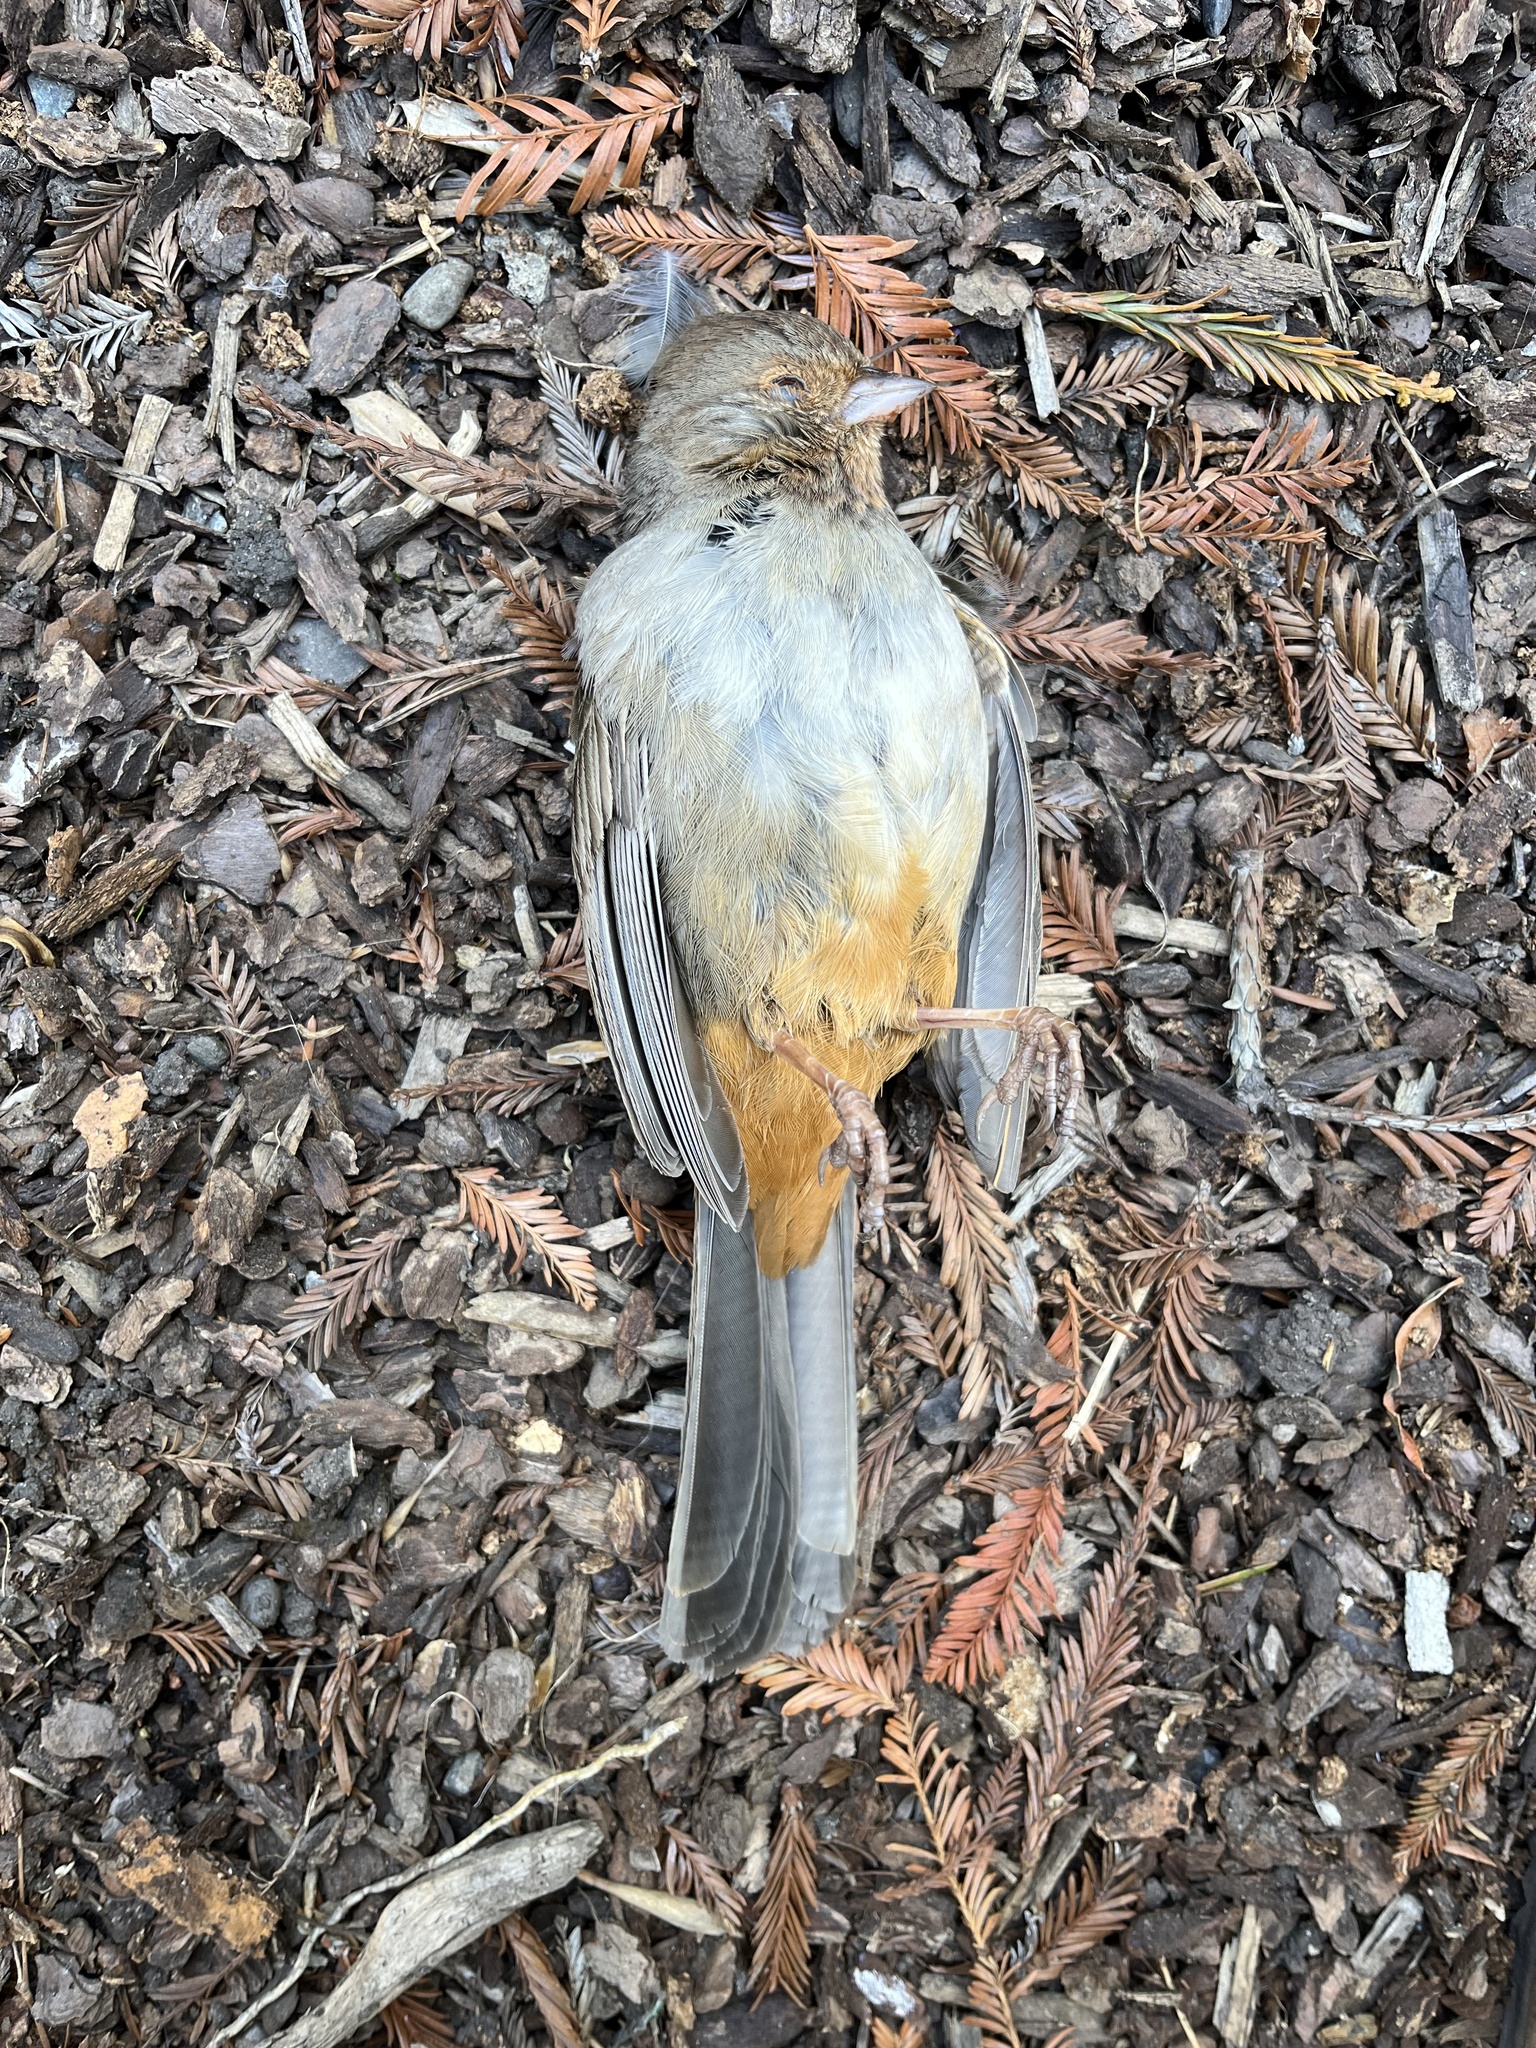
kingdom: Animalia
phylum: Chordata
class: Aves
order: Passeriformes
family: Passerellidae
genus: Melozone
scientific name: Melozone crissalis
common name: California towhee
